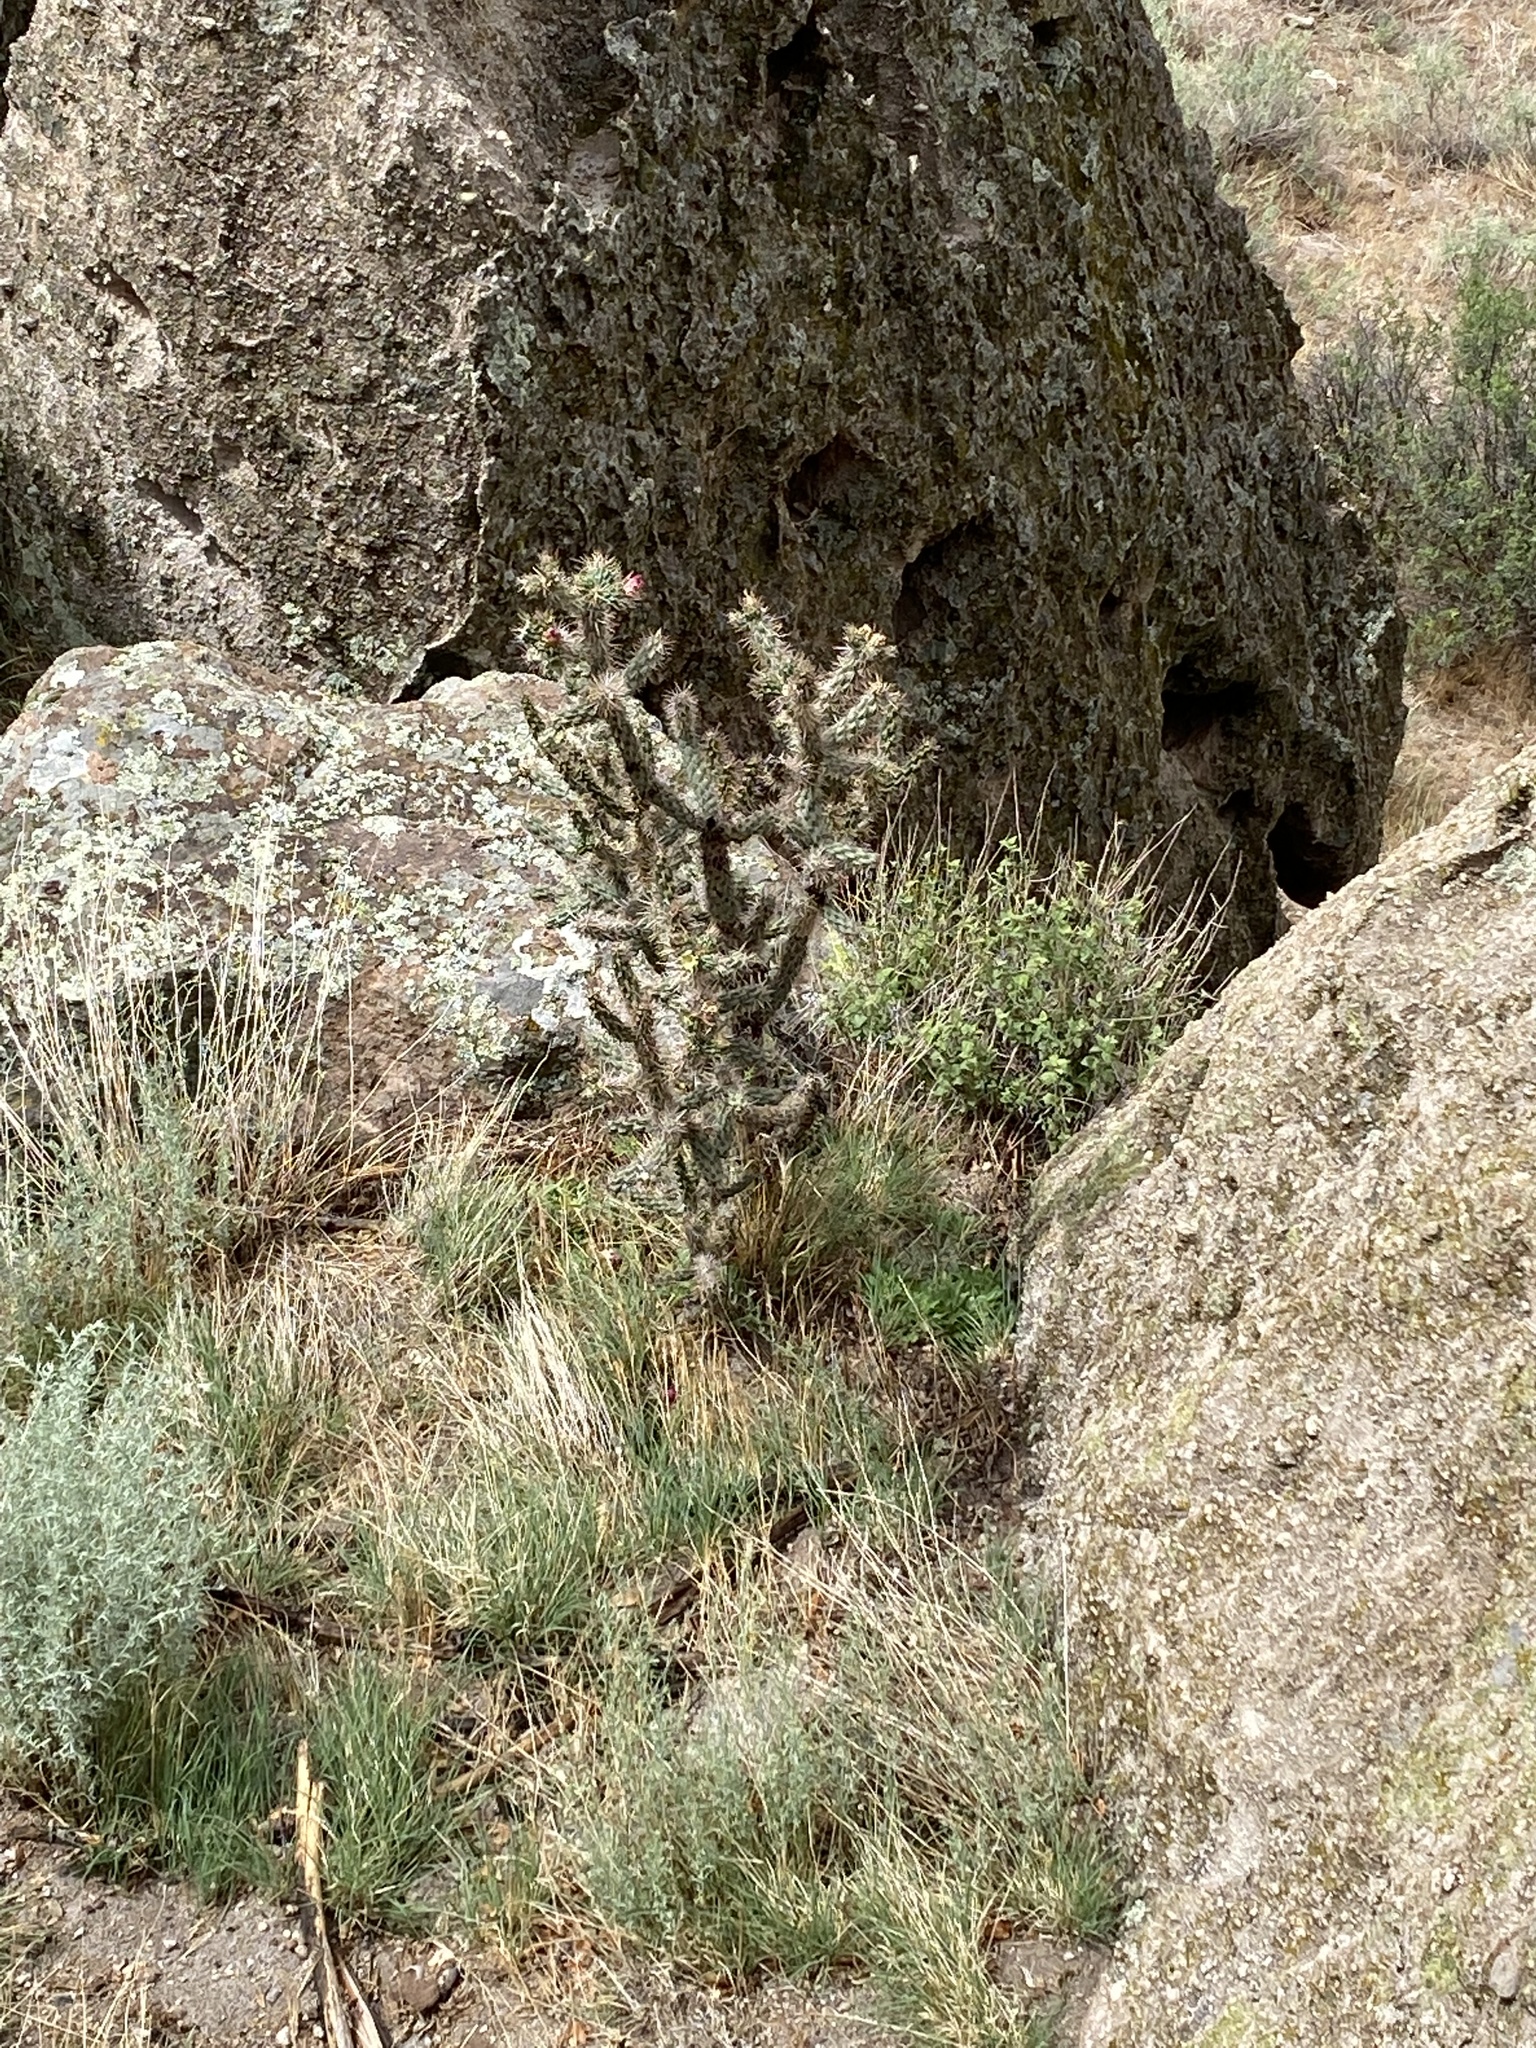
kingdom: Plantae
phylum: Tracheophyta
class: Magnoliopsida
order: Caryophyllales
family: Cactaceae
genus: Cylindropuntia
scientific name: Cylindropuntia imbricata
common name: Candelabrum cactus
